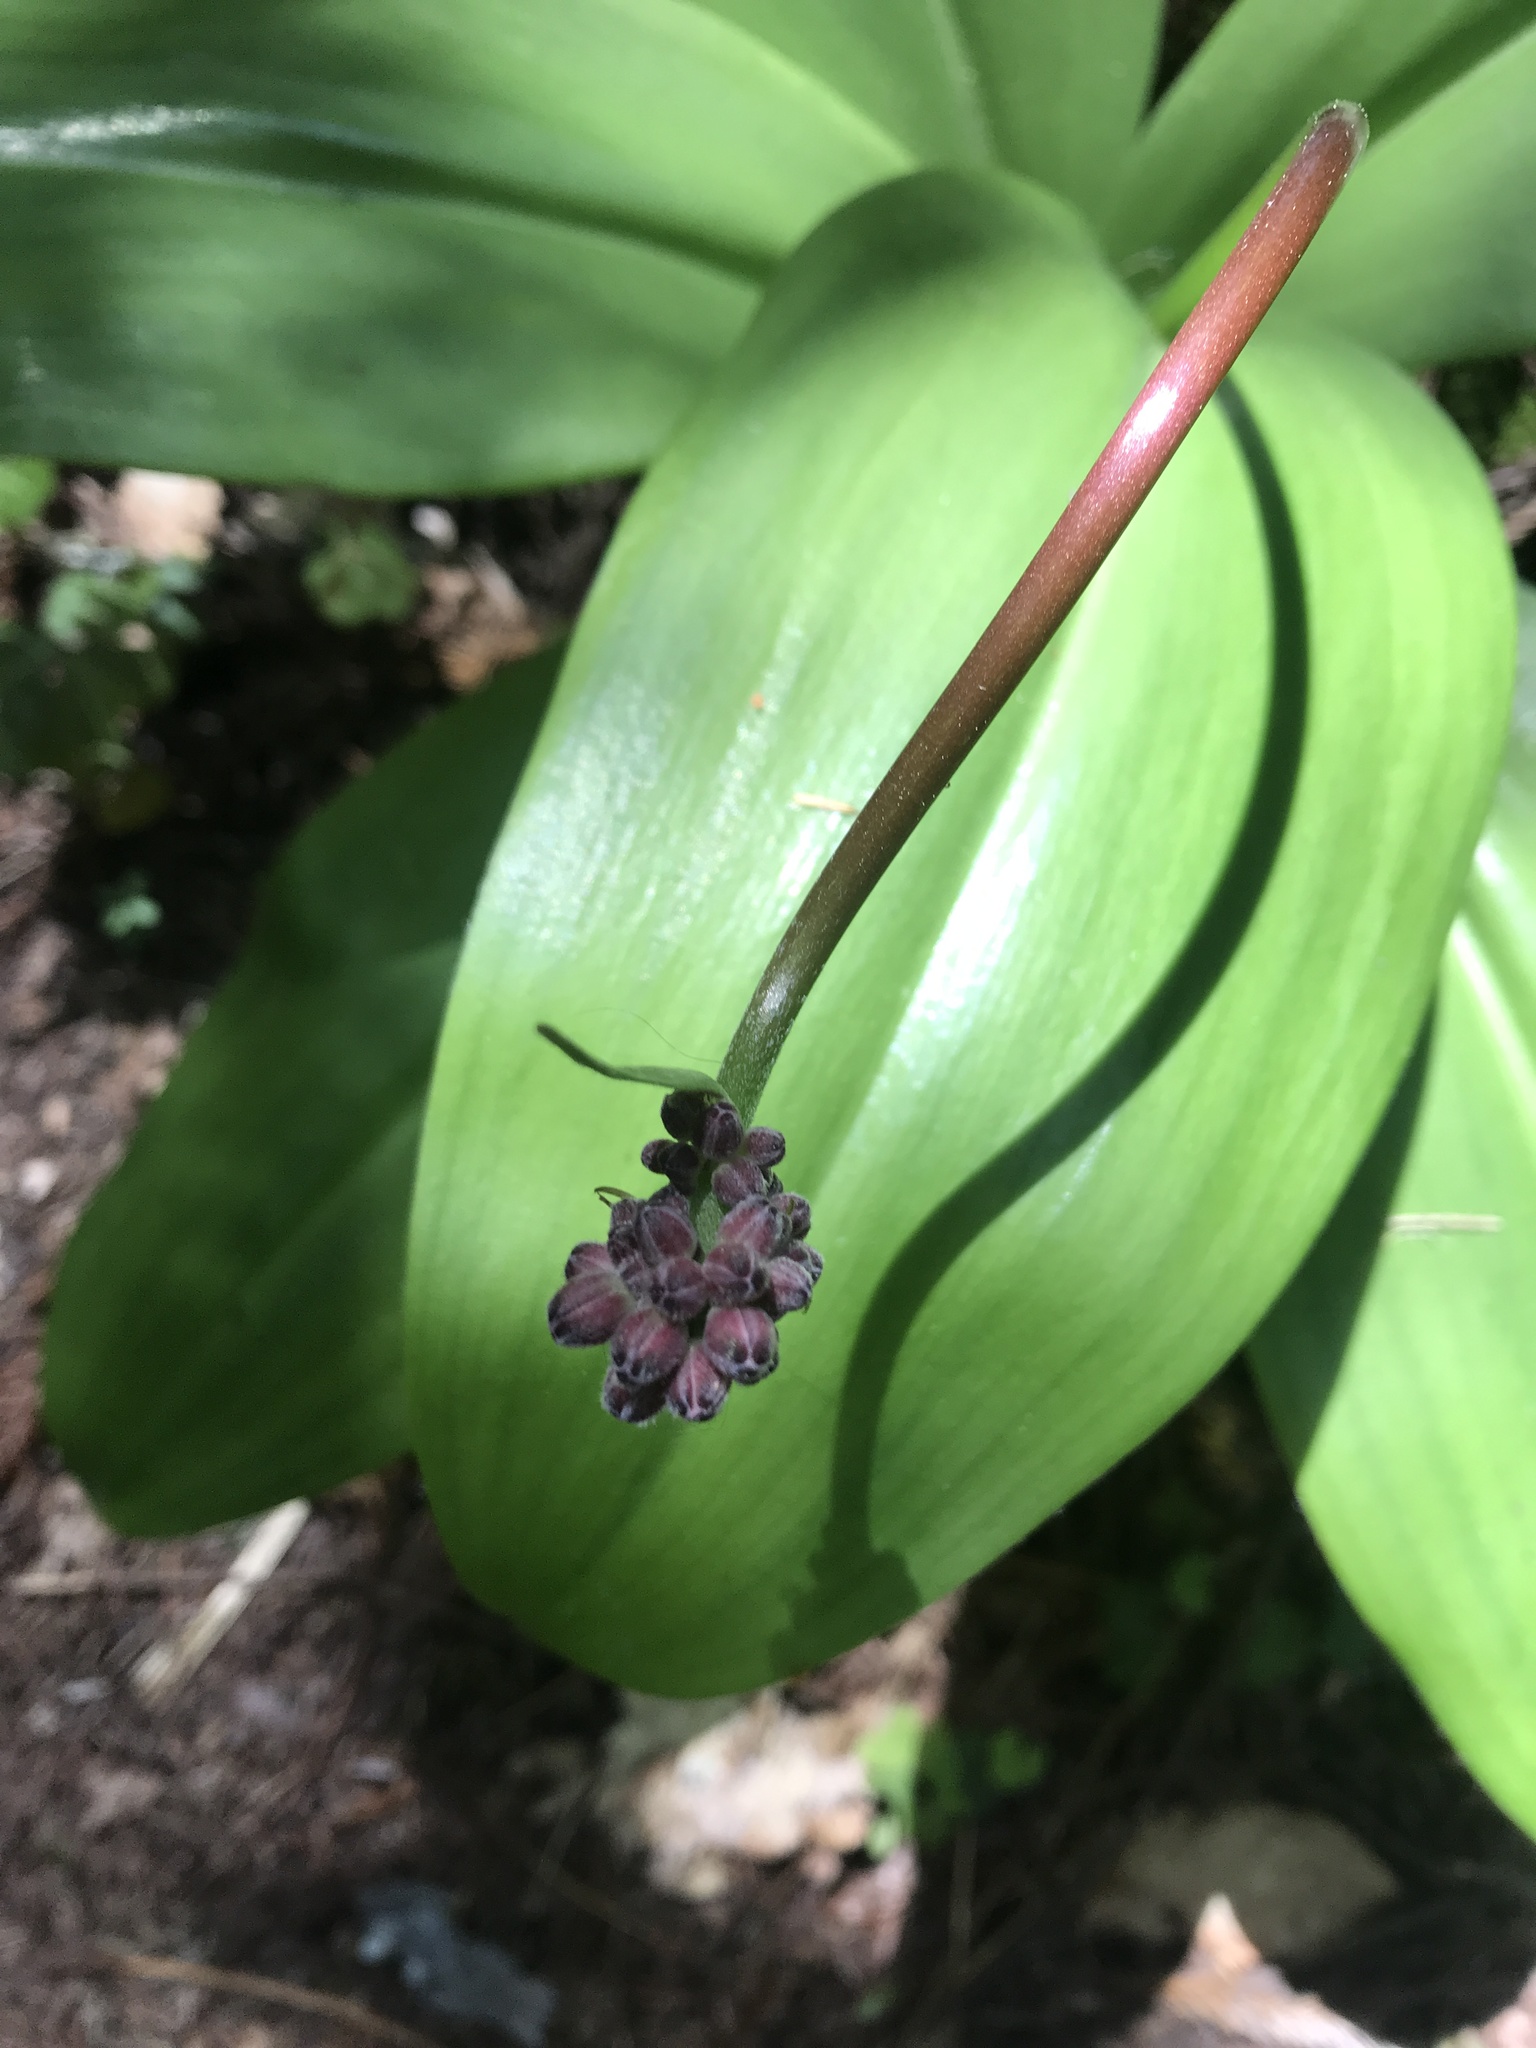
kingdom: Plantae
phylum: Tracheophyta
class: Liliopsida
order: Liliales
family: Liliaceae
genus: Clintonia
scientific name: Clintonia andrewsiana
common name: Red clintonia
